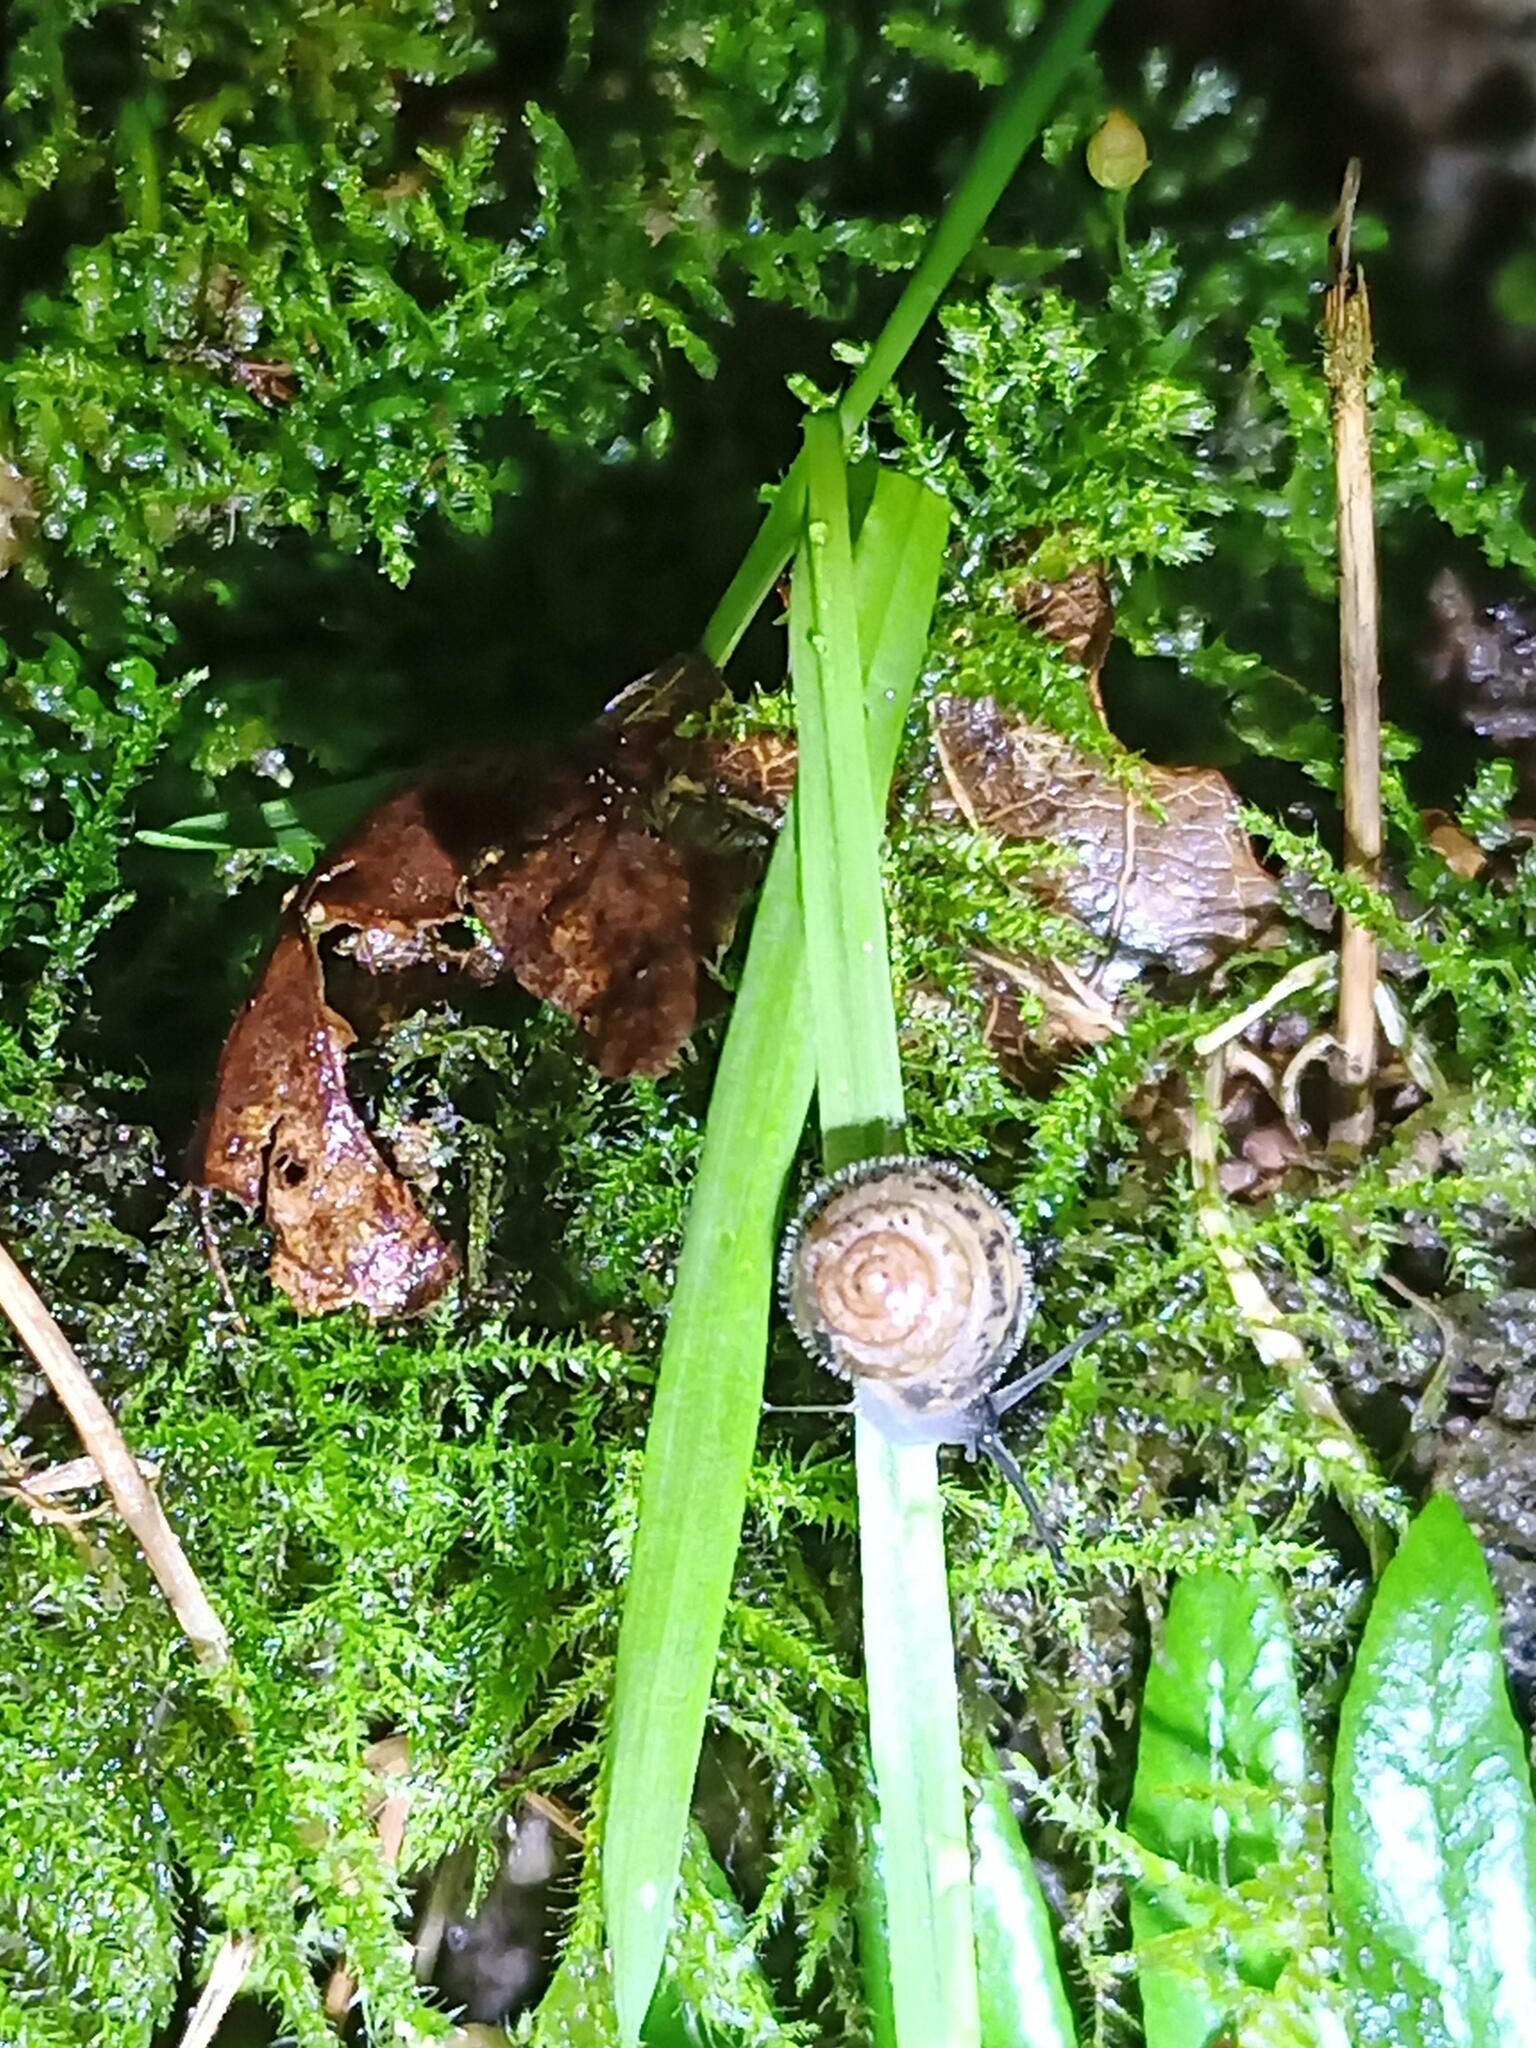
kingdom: Animalia
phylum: Mollusca
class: Gastropoda
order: Stylommatophora
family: Hygromiidae
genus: Ashfordia
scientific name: Ashfordia granulata
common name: Silky snail
